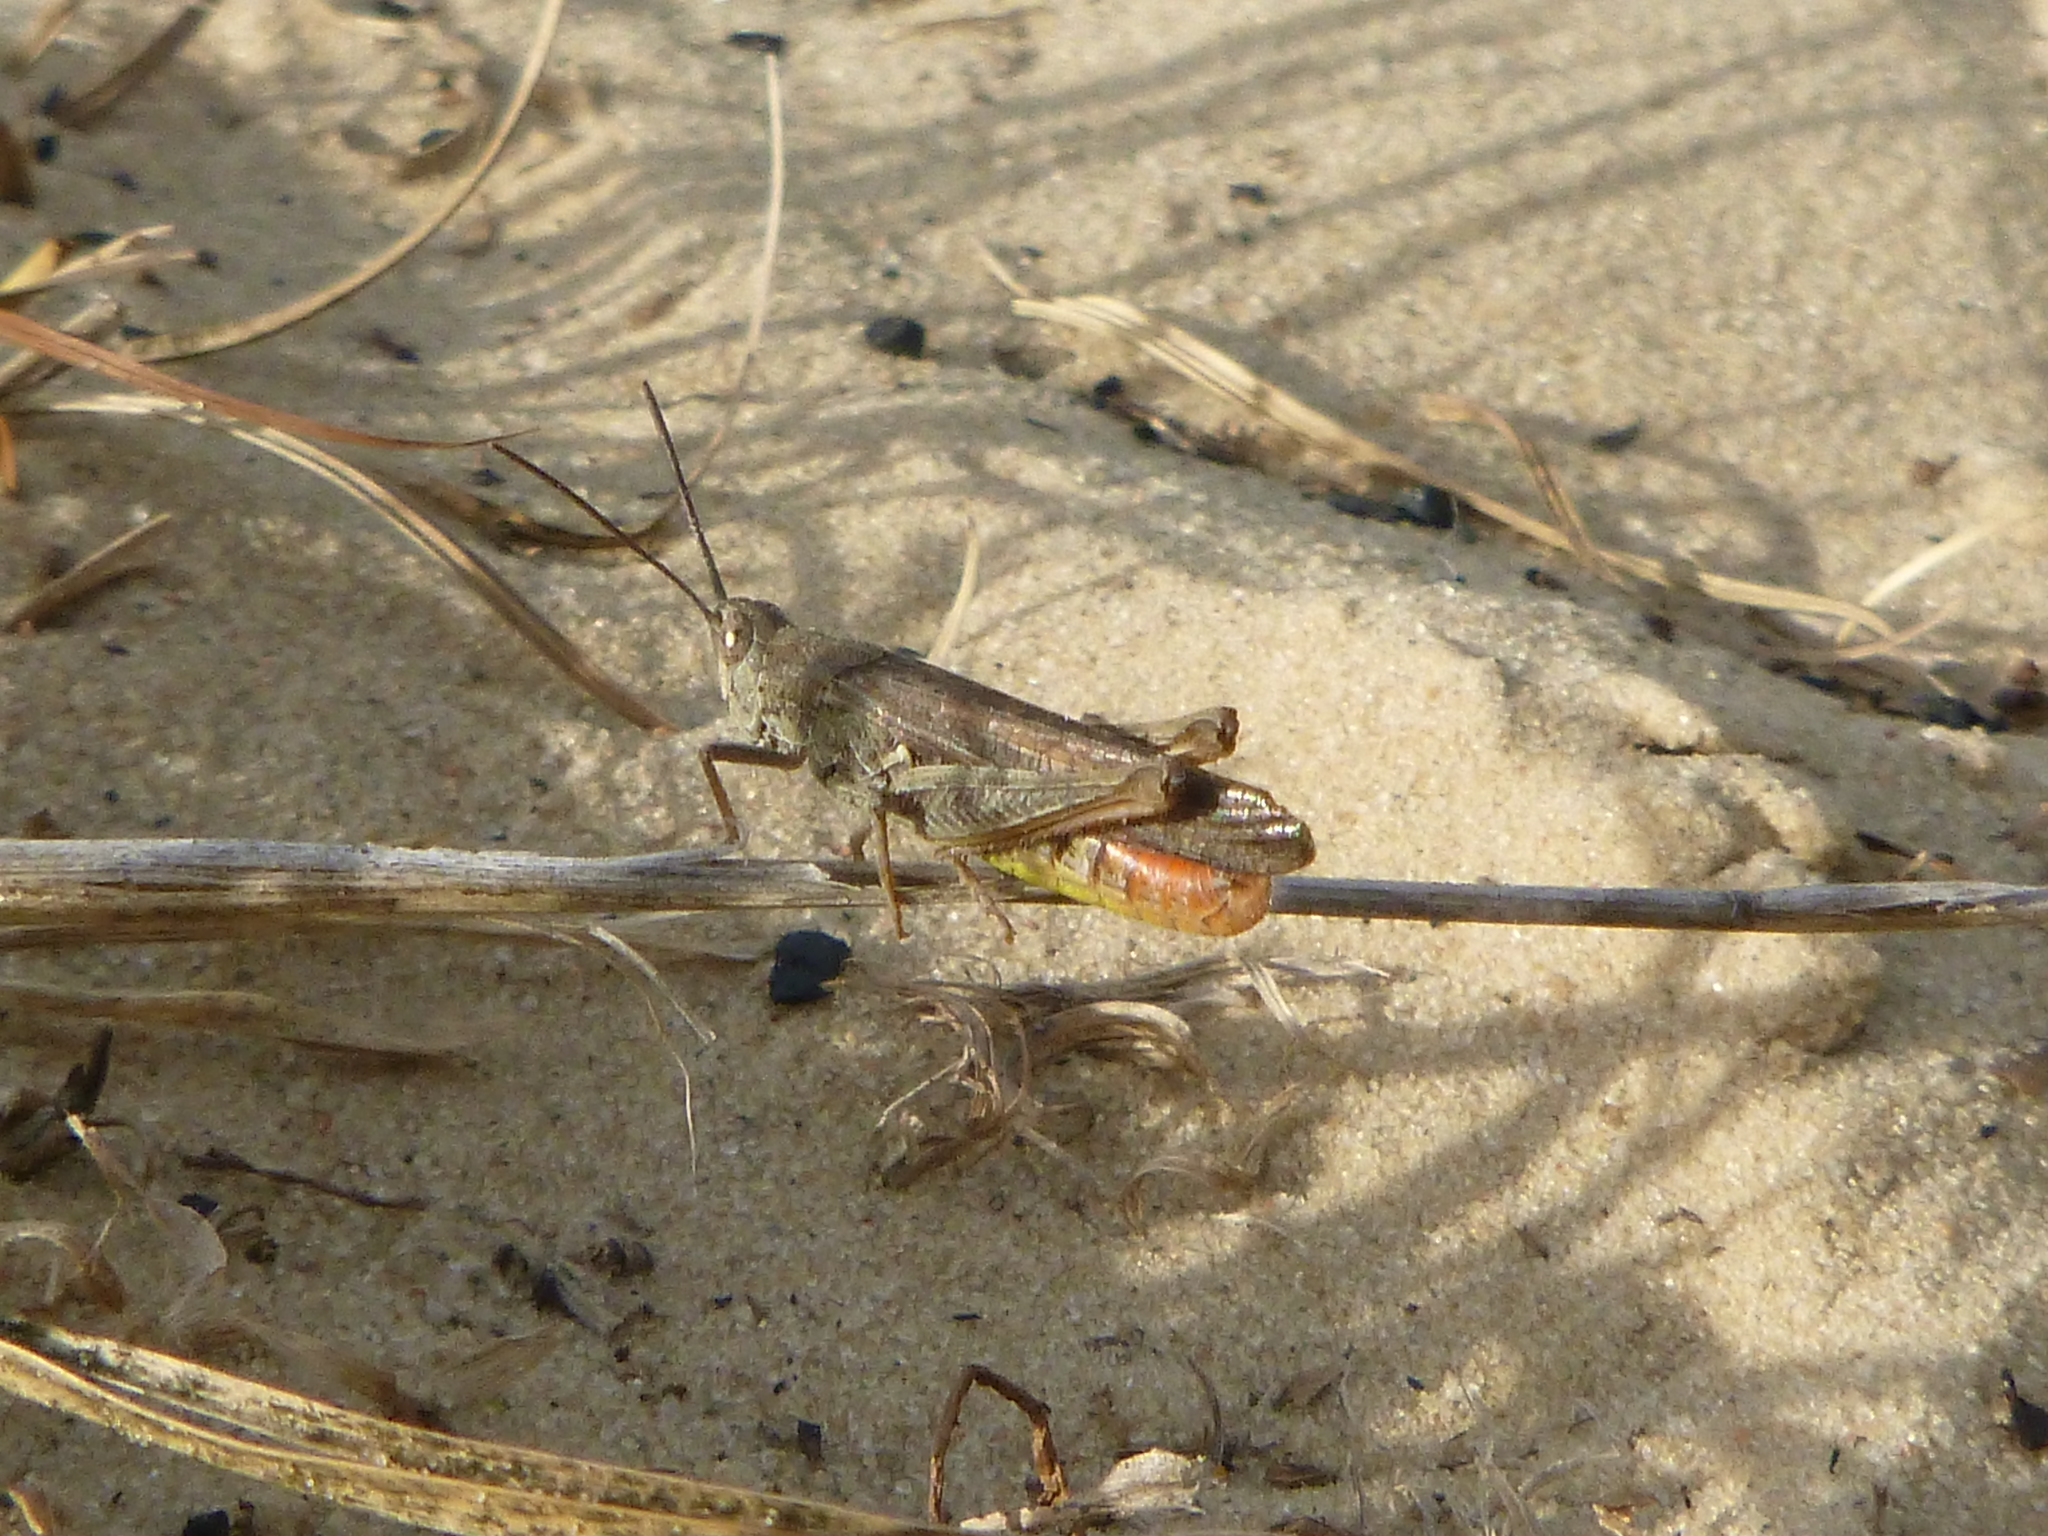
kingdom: Animalia
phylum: Arthropoda
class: Insecta
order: Orthoptera
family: Acrididae
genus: Chorthippus
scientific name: Chorthippus brunneus
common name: Field grasshopper
